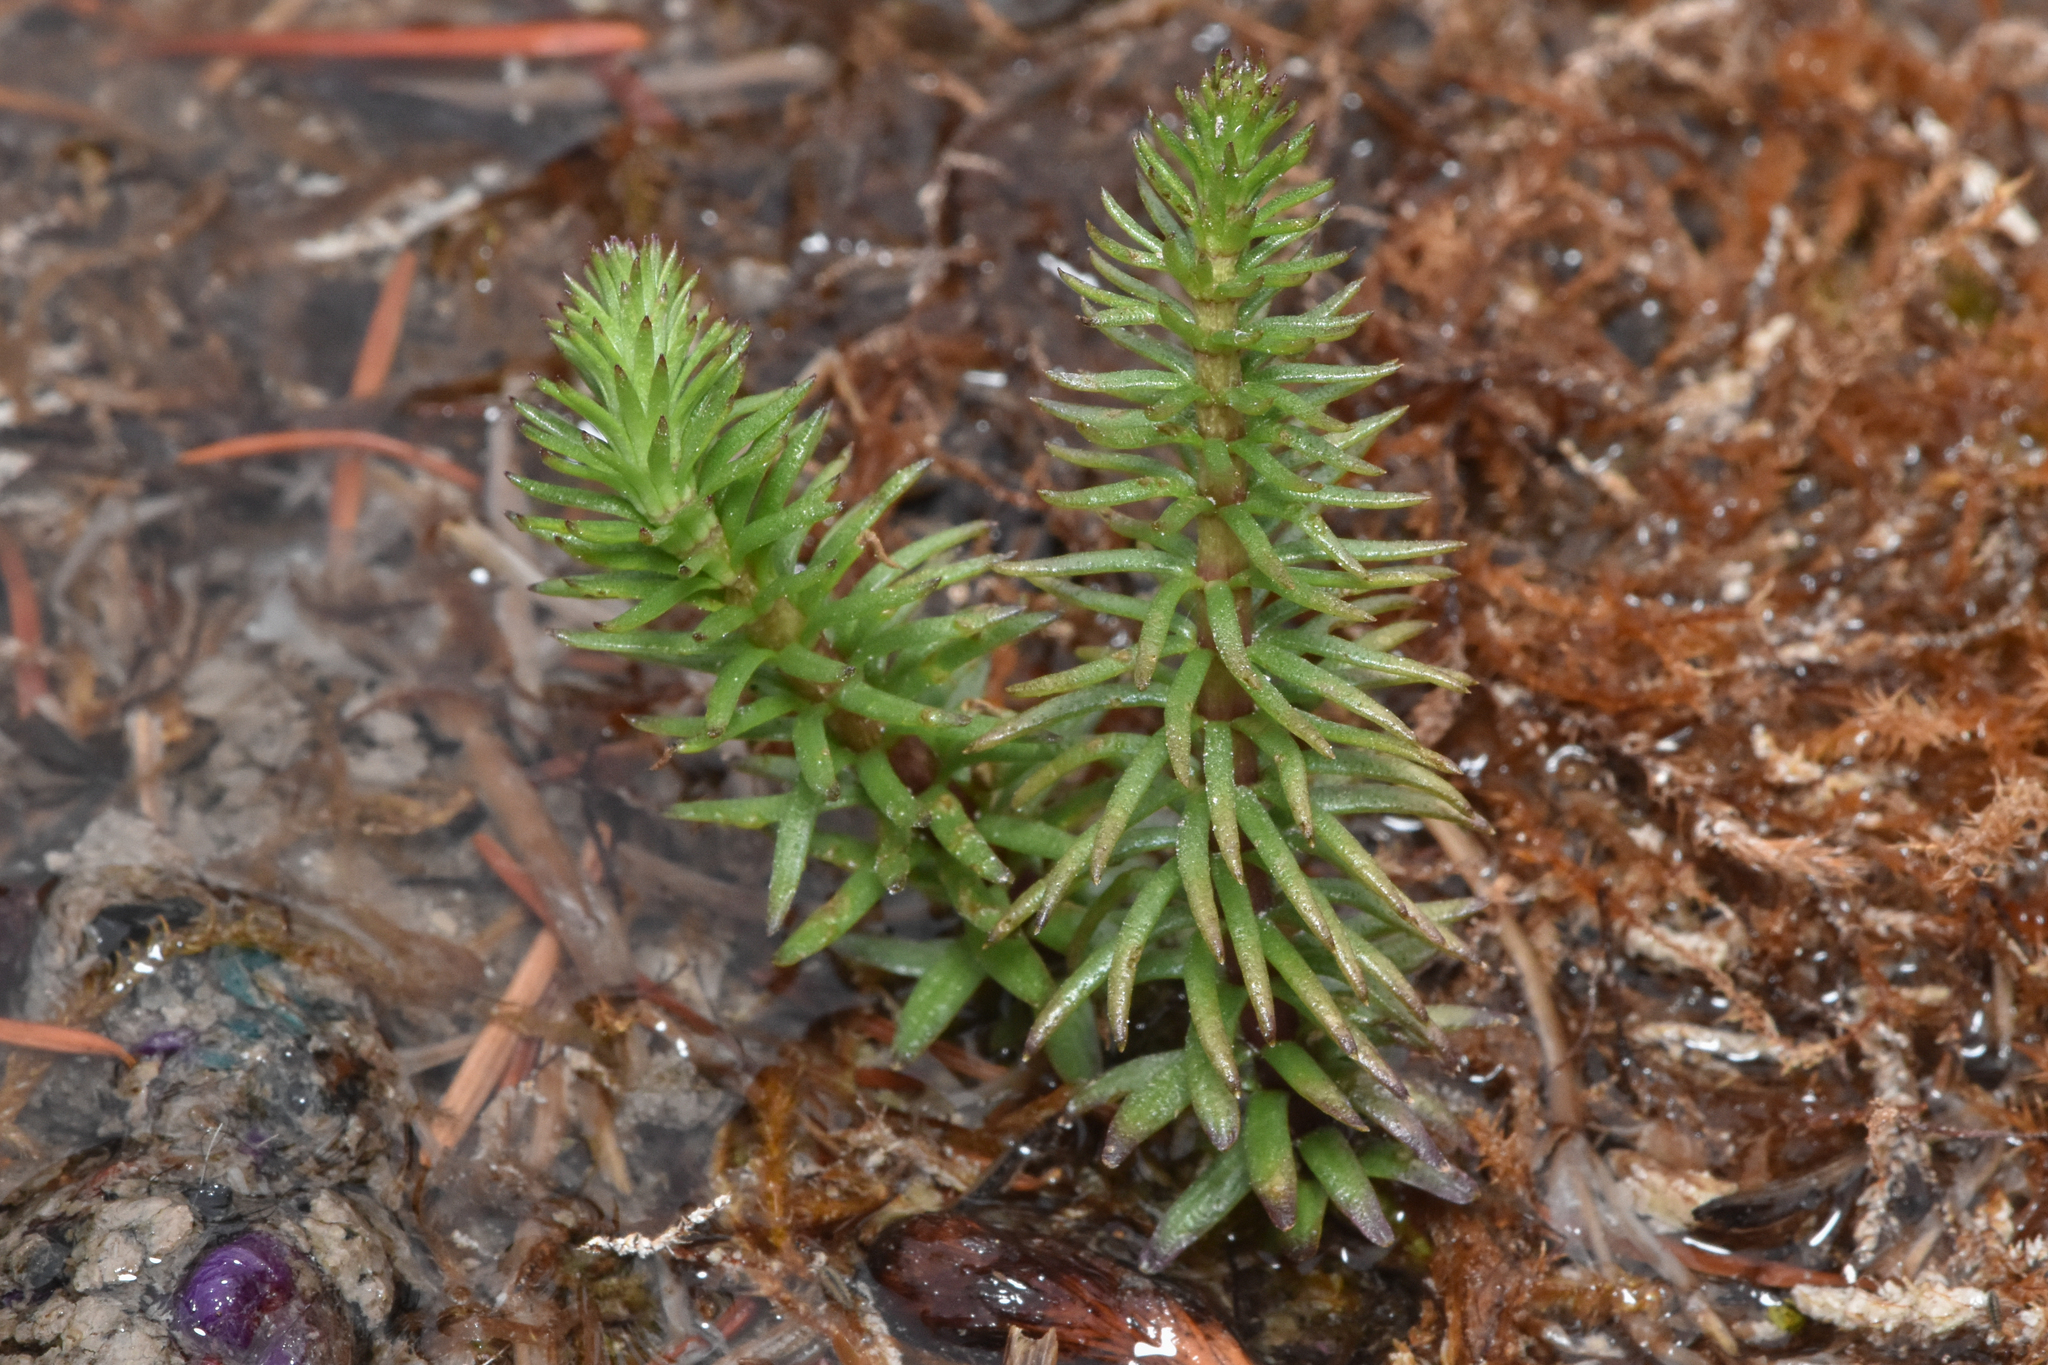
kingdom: Plantae
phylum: Tracheophyta
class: Magnoliopsida
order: Lamiales
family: Plantaginaceae
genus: Hippuris
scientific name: Hippuris vulgaris
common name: Mare's-tail
